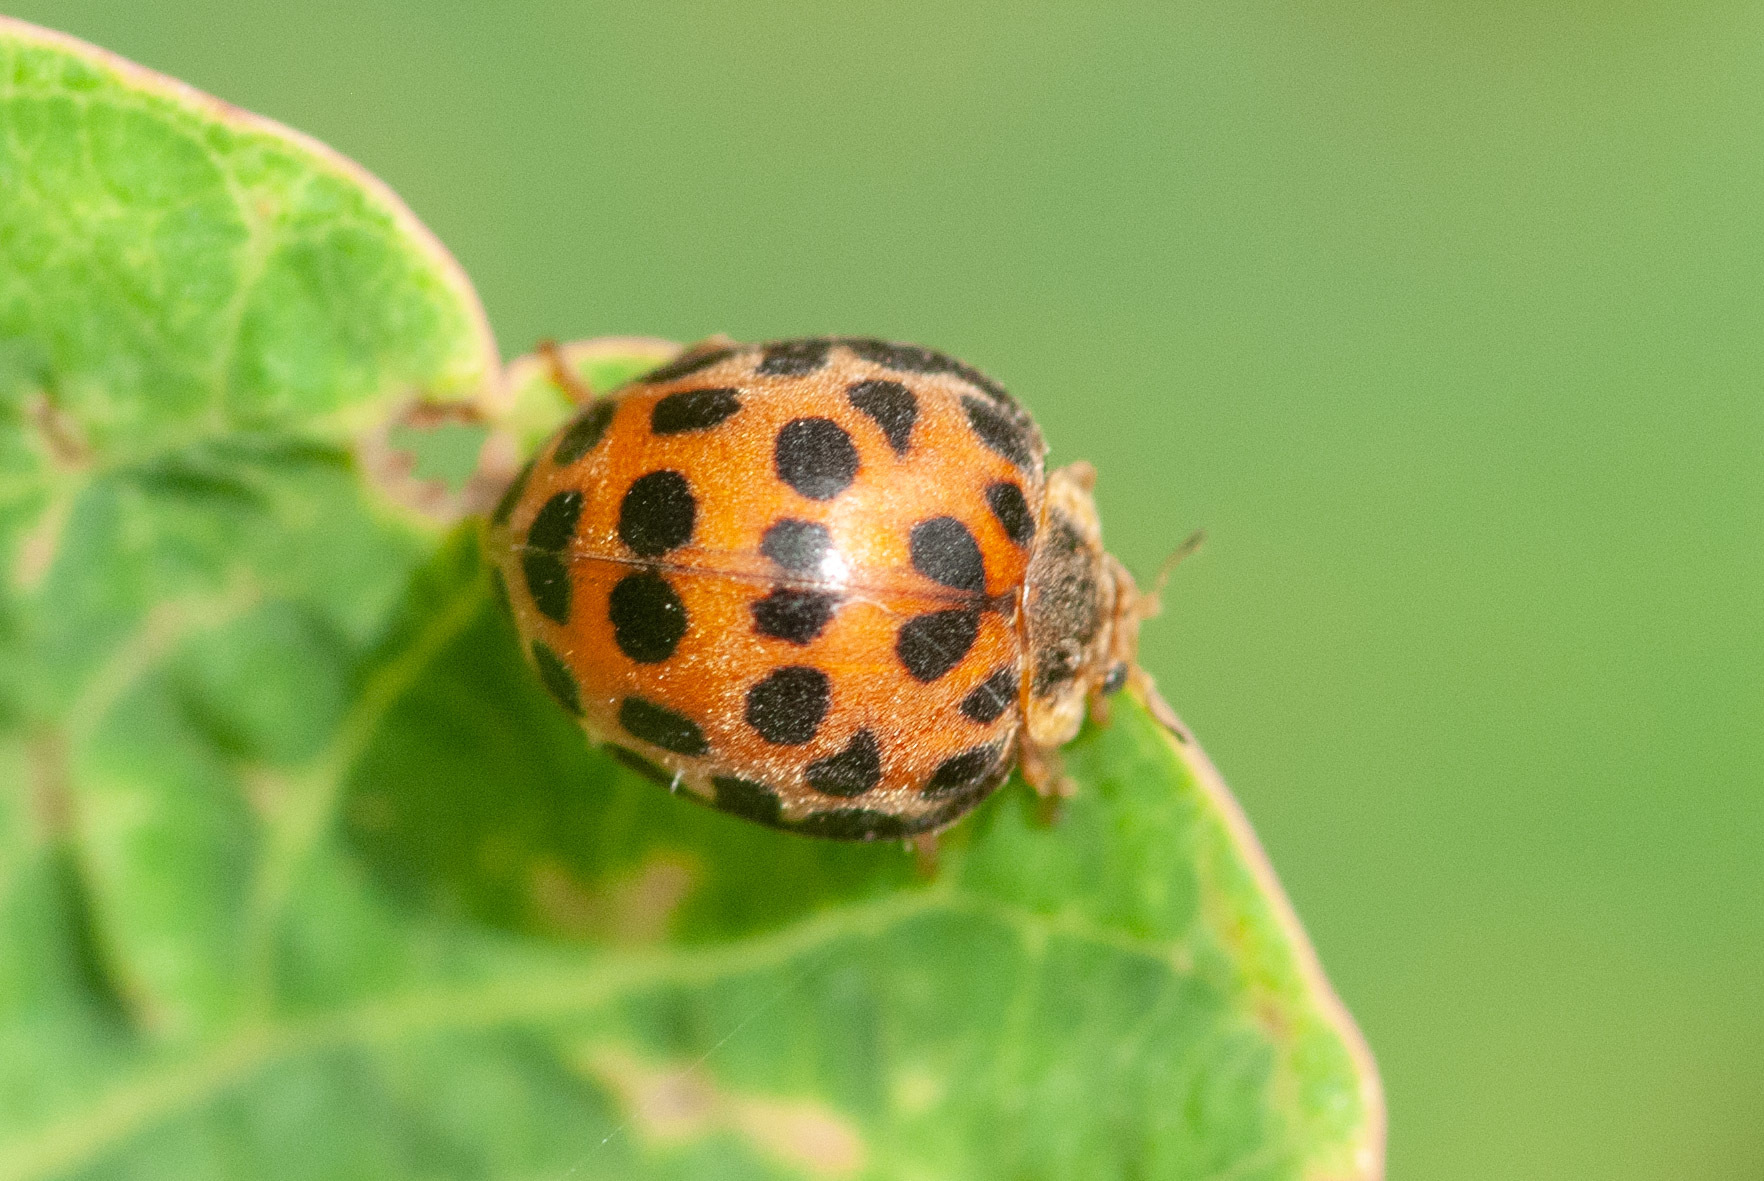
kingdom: Animalia
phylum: Arthropoda
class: Insecta
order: Coleoptera
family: Coccinellidae
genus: Henosepilachna
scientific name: Henosepilachna vigintisexpunctata
